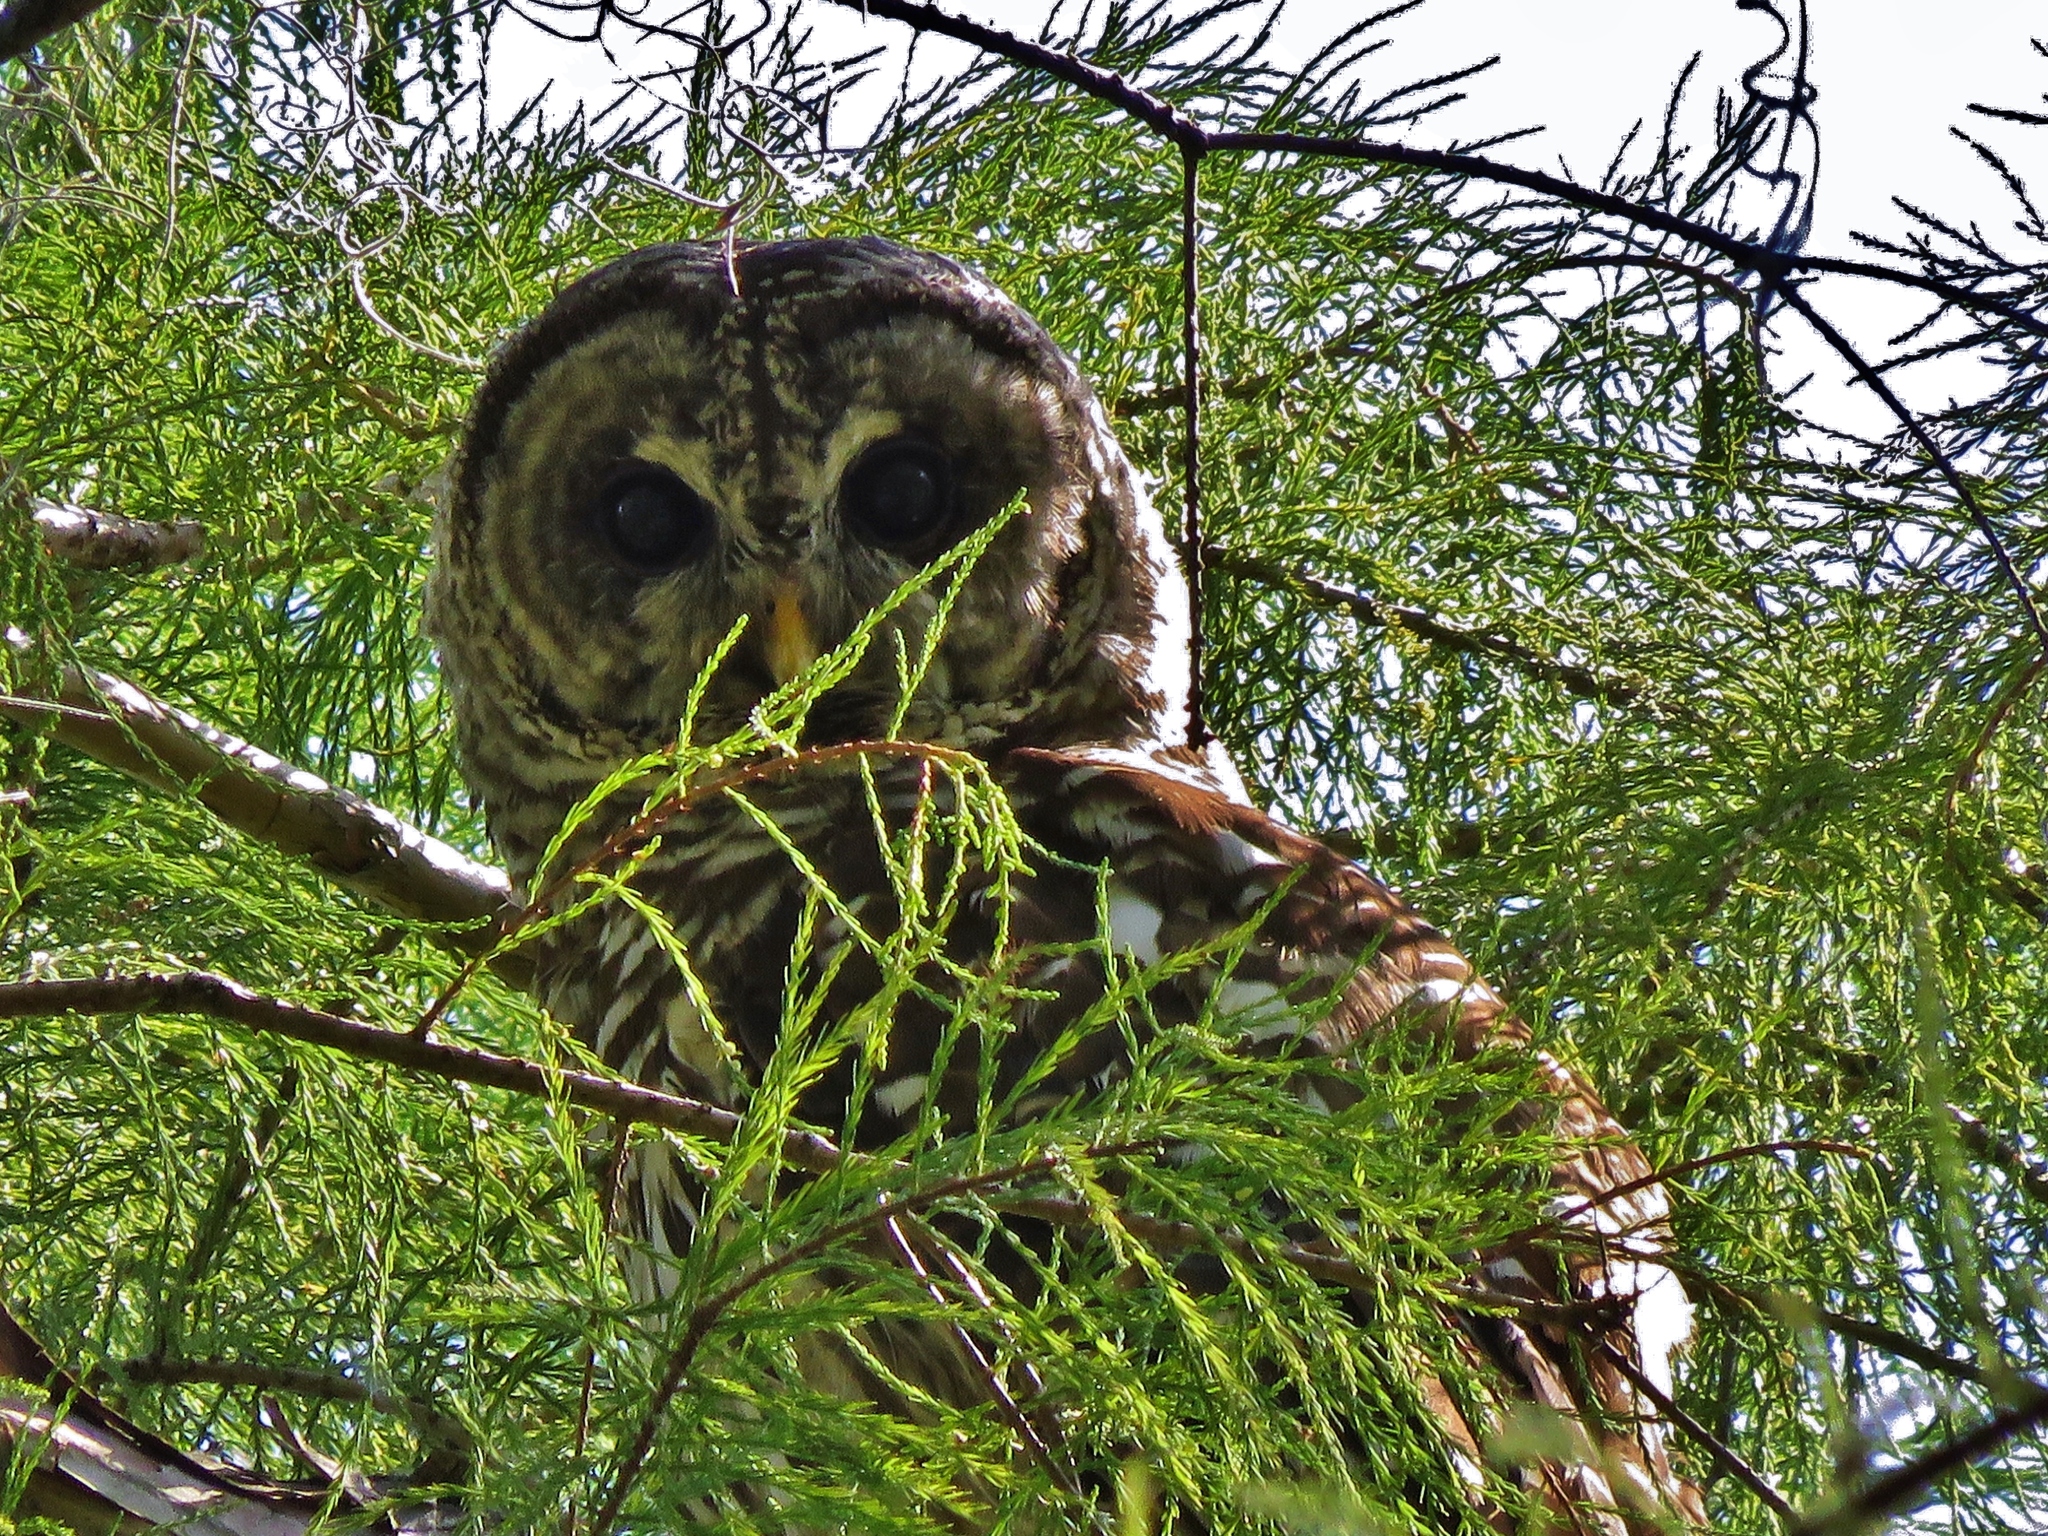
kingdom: Animalia
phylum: Chordata
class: Aves
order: Strigiformes
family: Strigidae
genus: Strix
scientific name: Strix varia
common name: Barred owl
